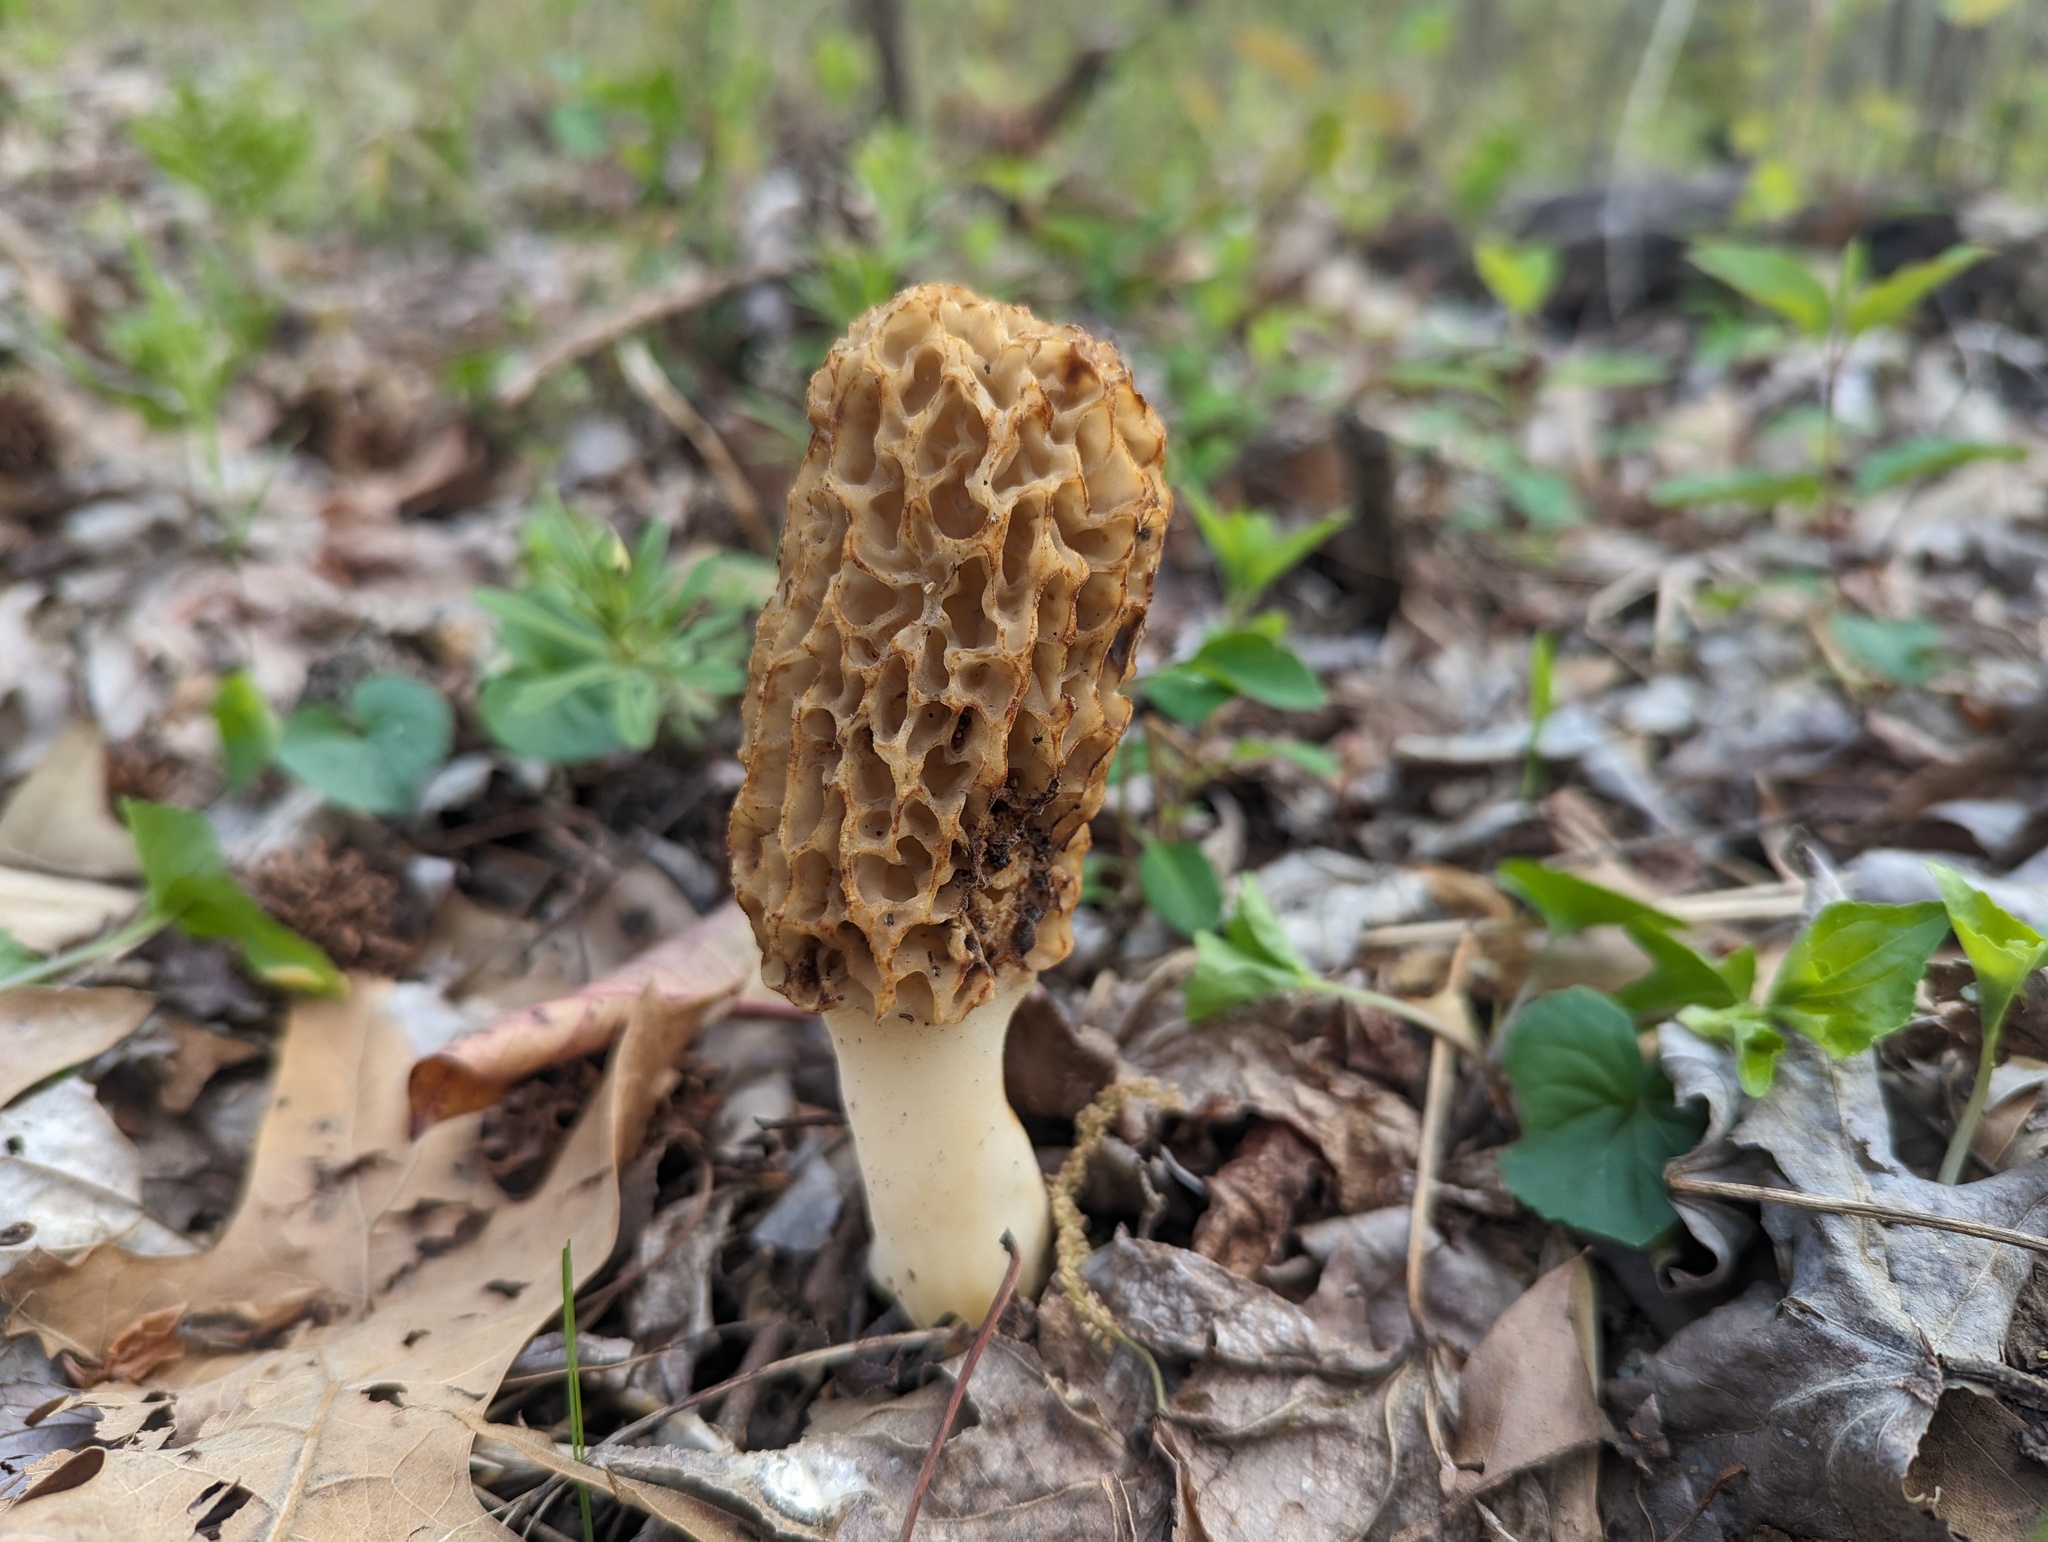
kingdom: Fungi
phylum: Ascomycota
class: Pezizomycetes
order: Pezizales
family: Morchellaceae
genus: Morchella
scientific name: Morchella americana
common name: White morel
